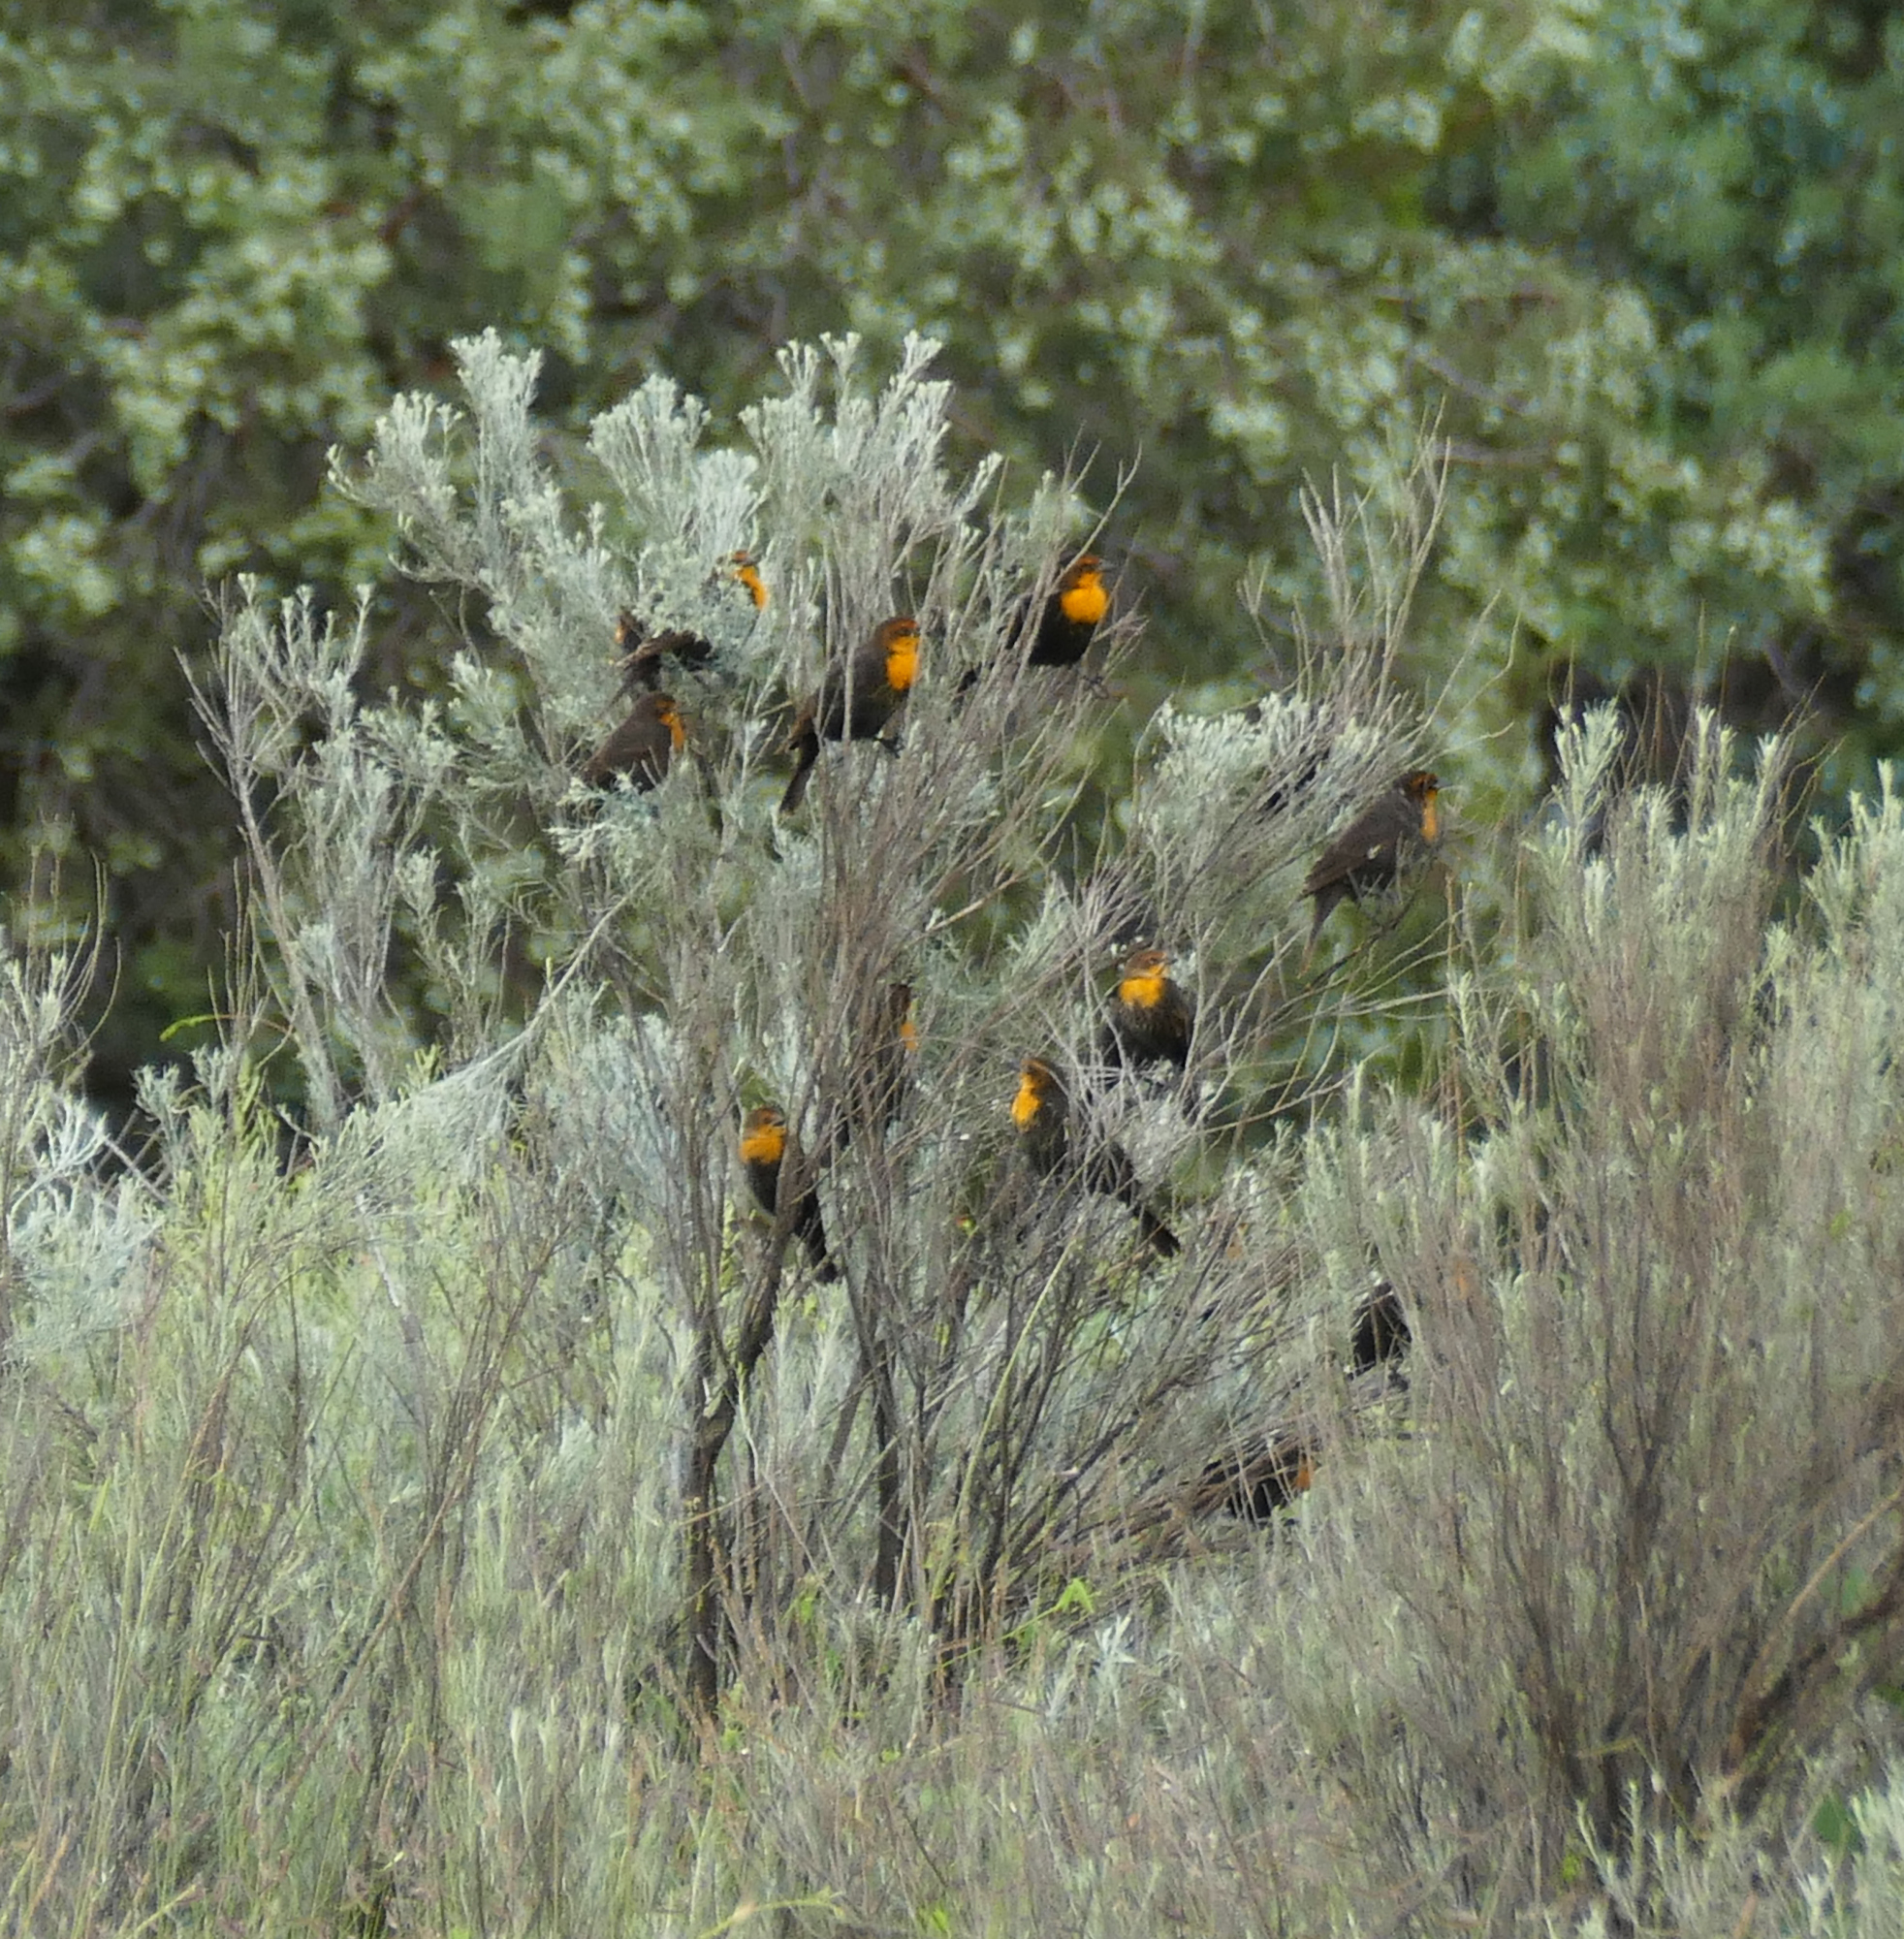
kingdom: Animalia
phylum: Chordata
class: Aves
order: Passeriformes
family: Icteridae
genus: Xanthocephalus
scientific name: Xanthocephalus xanthocephalus
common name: Yellow-headed blackbird
